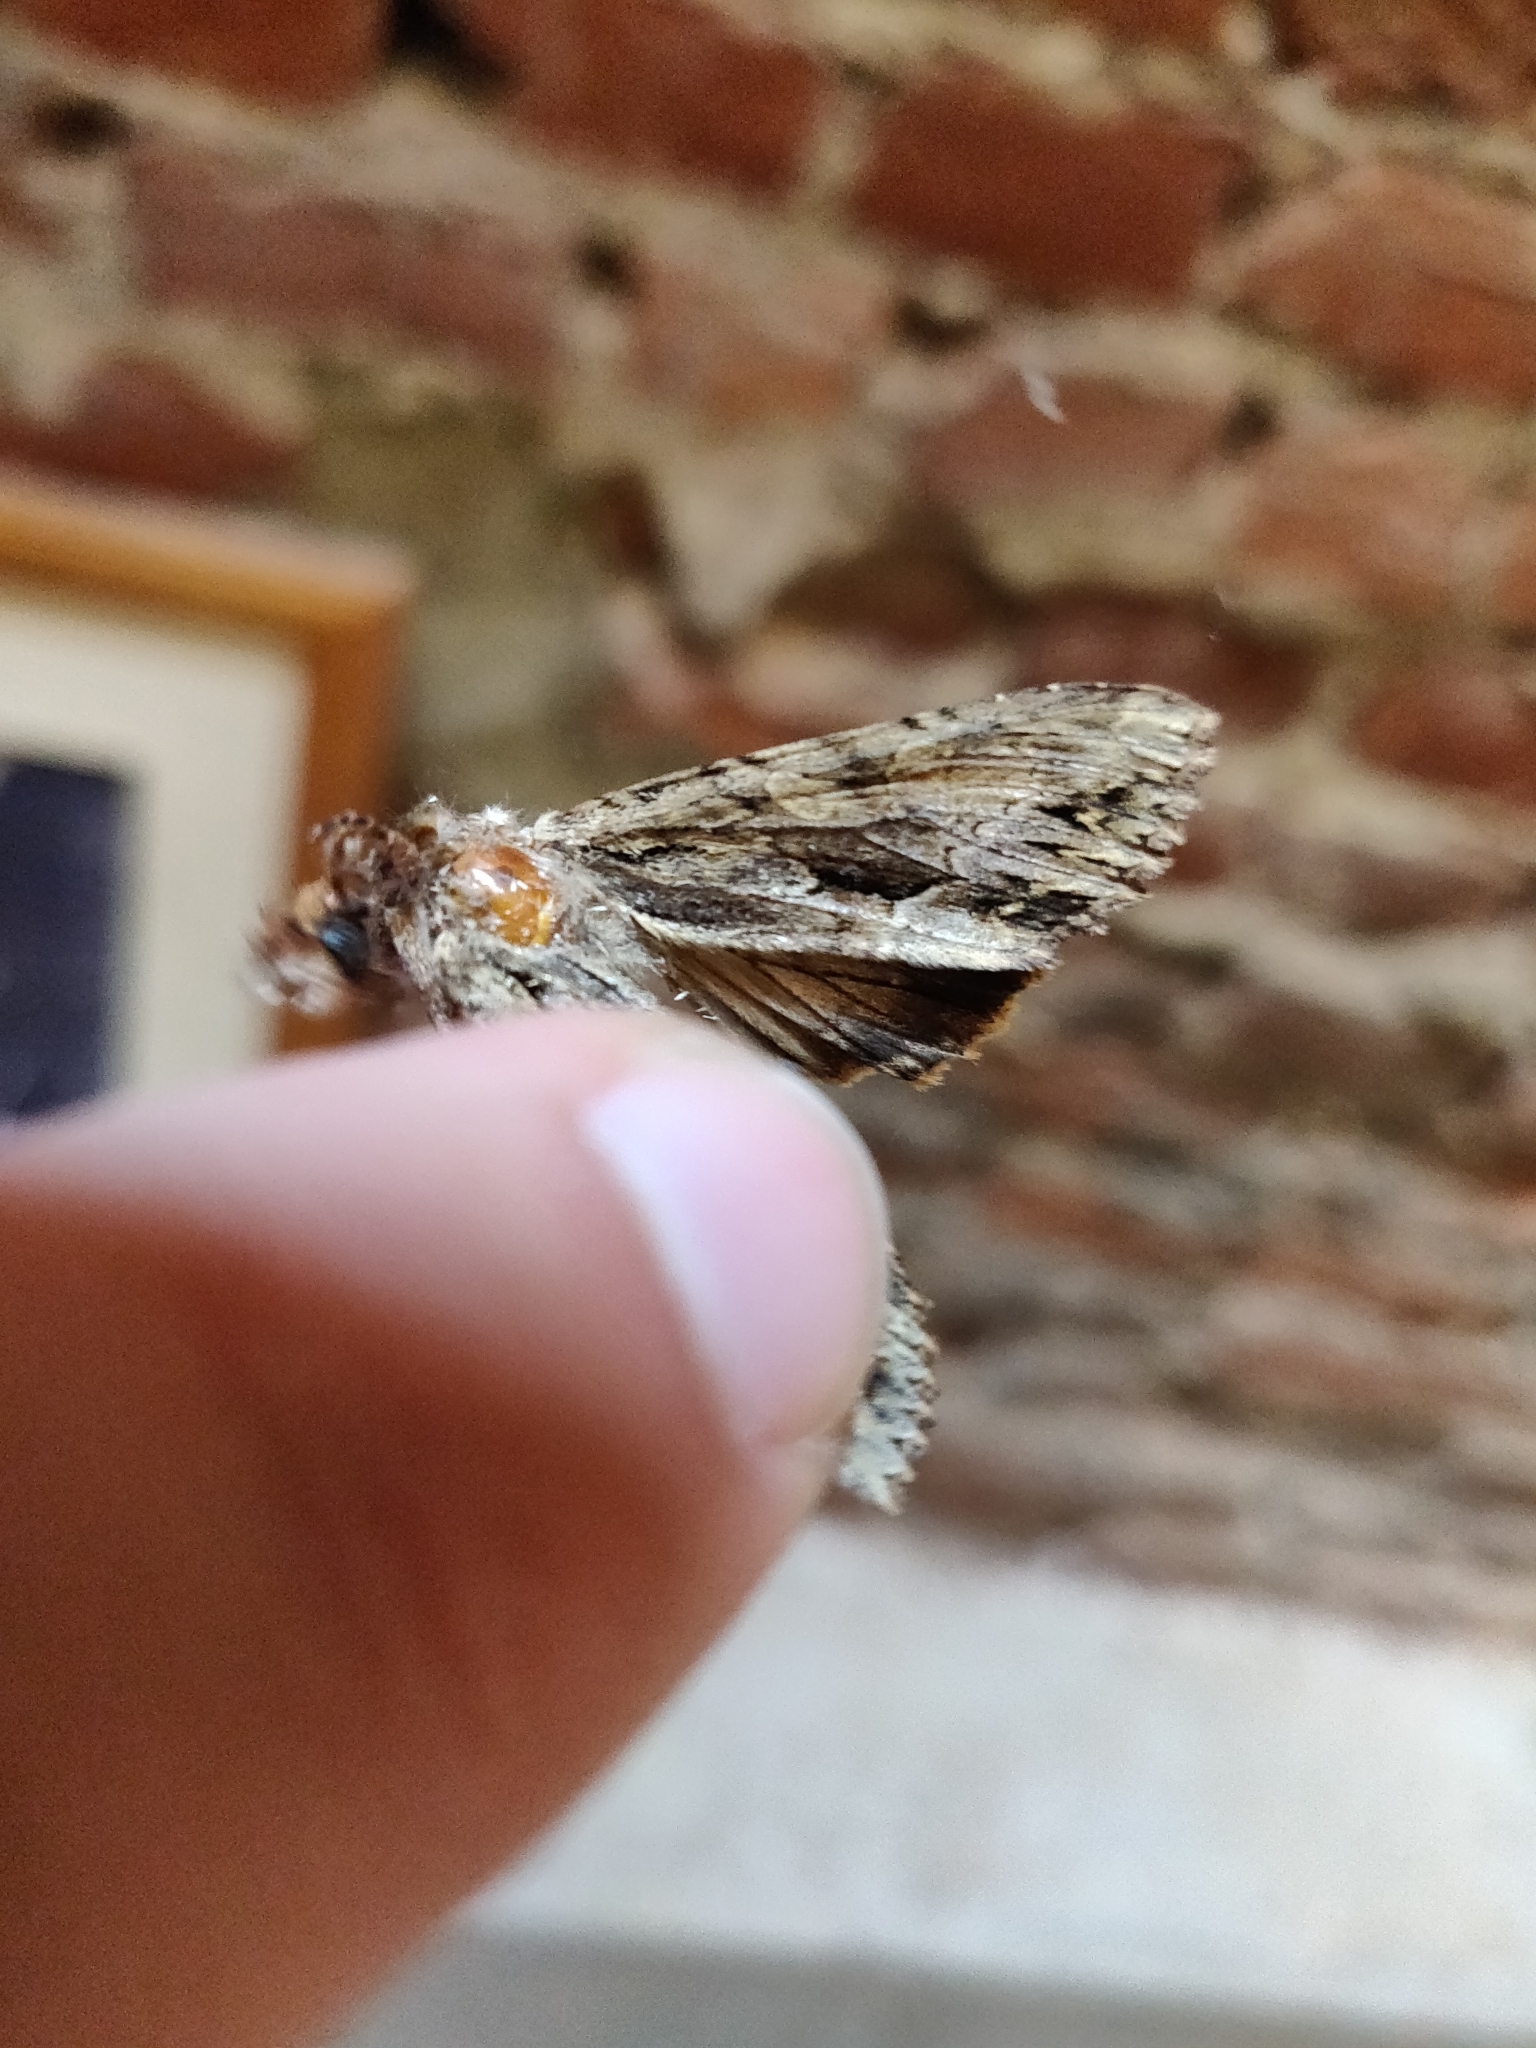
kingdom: Animalia
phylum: Arthropoda
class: Insecta
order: Lepidoptera
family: Noctuidae
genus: Apamea
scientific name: Apamea monoglypha
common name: Dark arches
